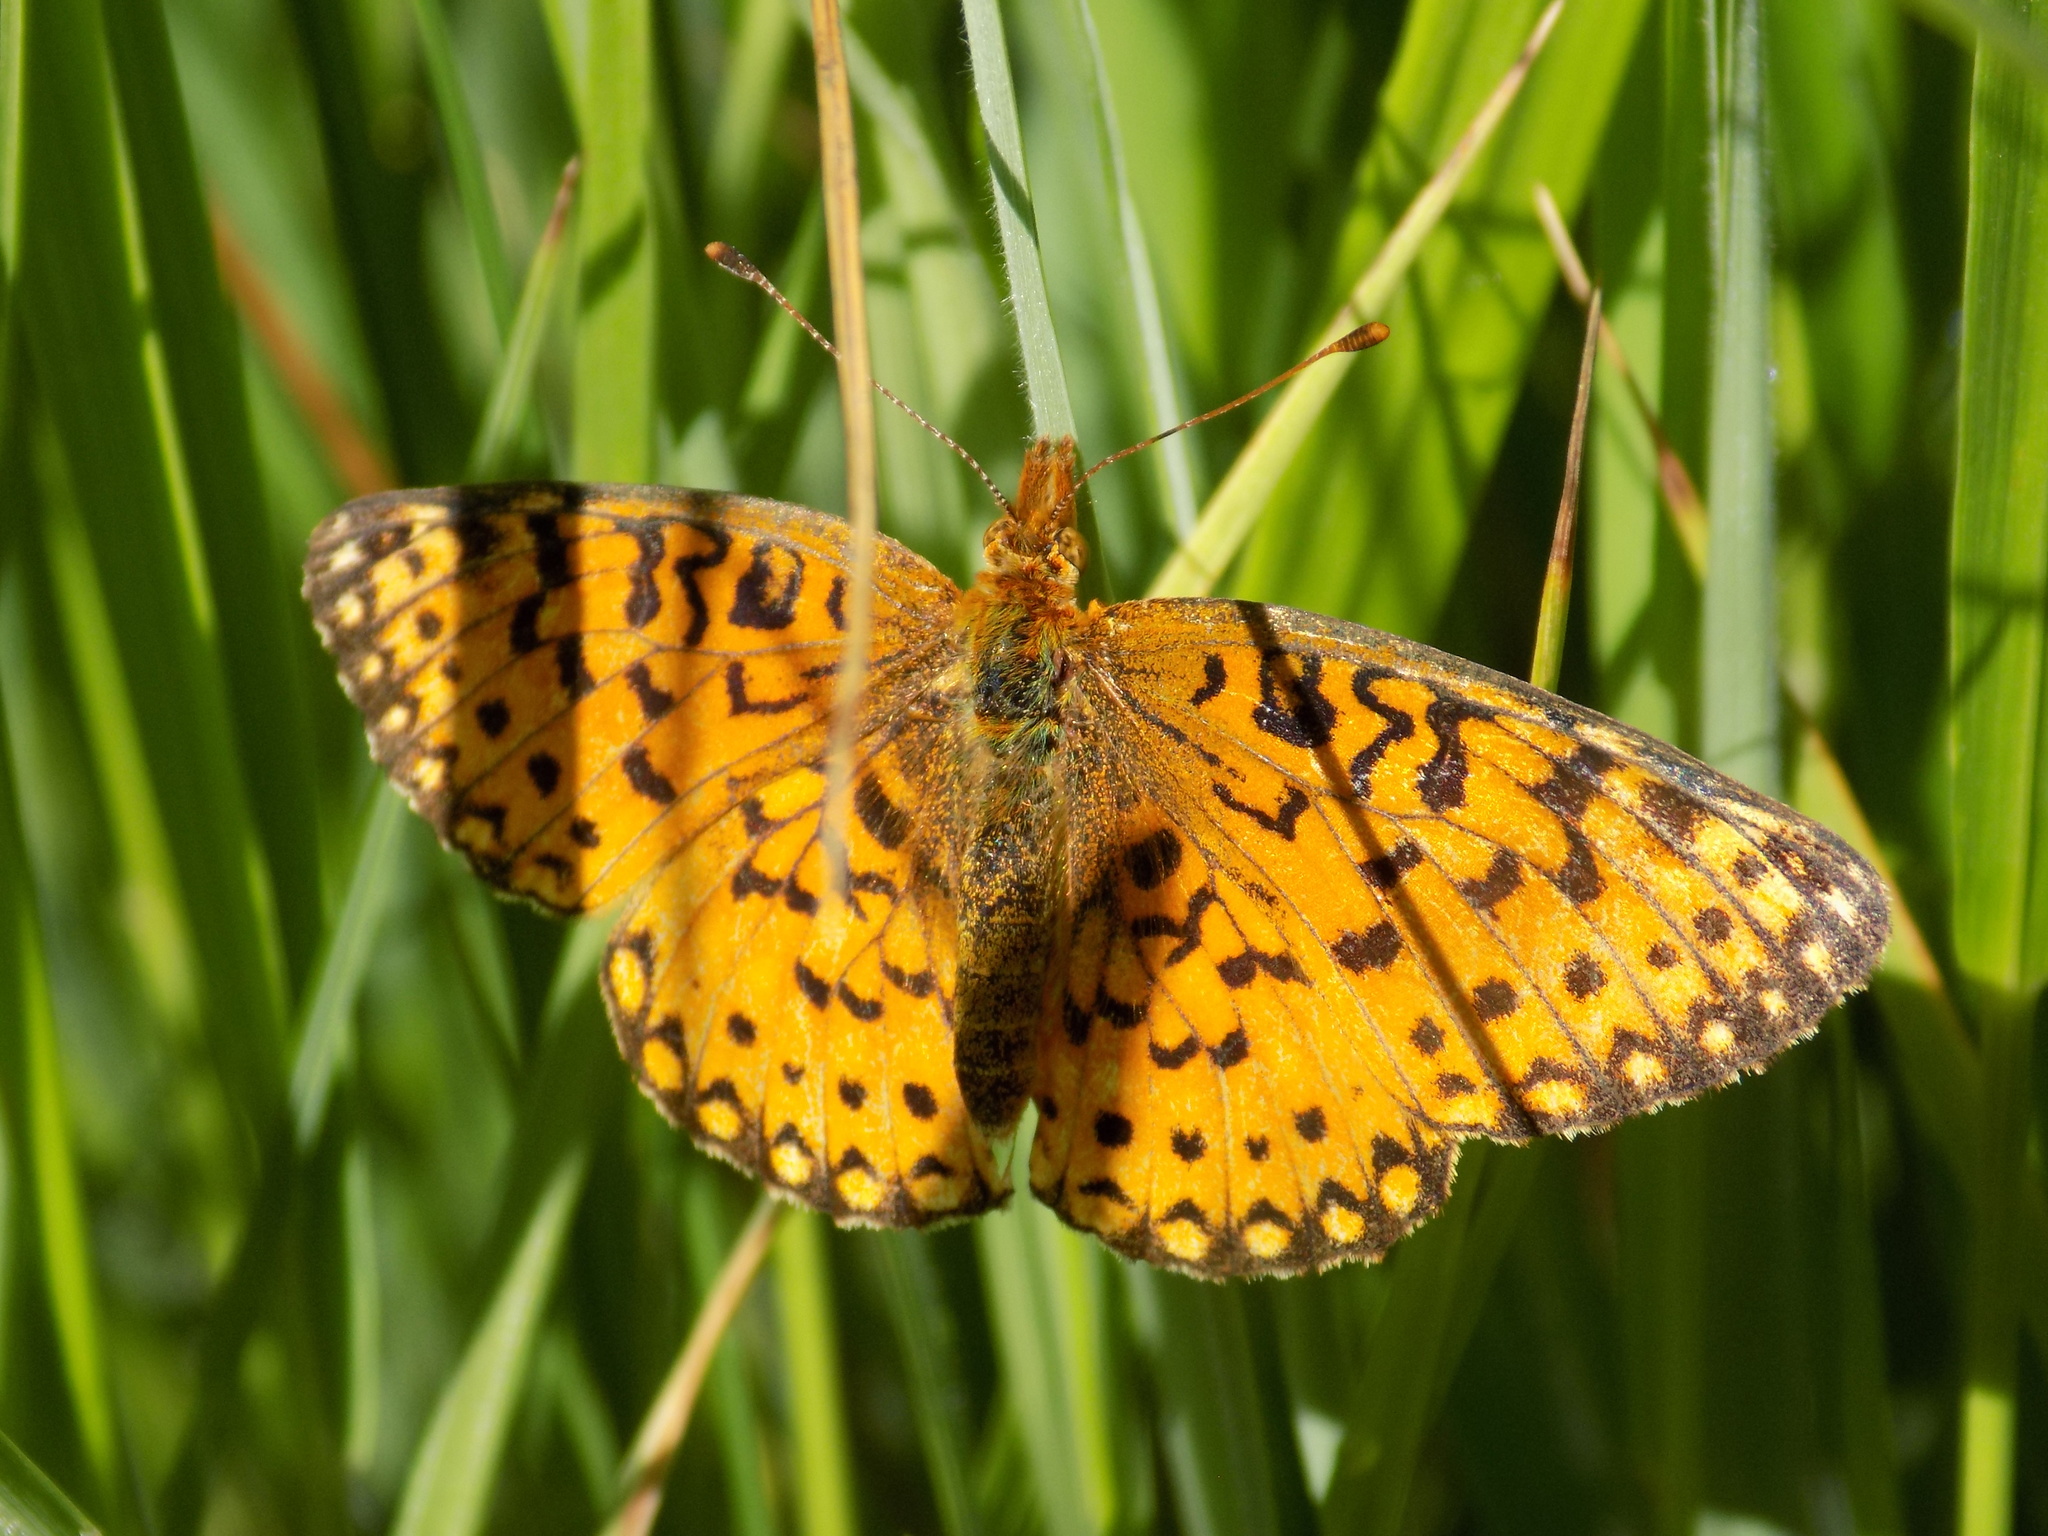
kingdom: Animalia
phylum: Arthropoda
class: Insecta
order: Lepidoptera
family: Nymphalidae
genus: Boloria
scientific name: Boloria
